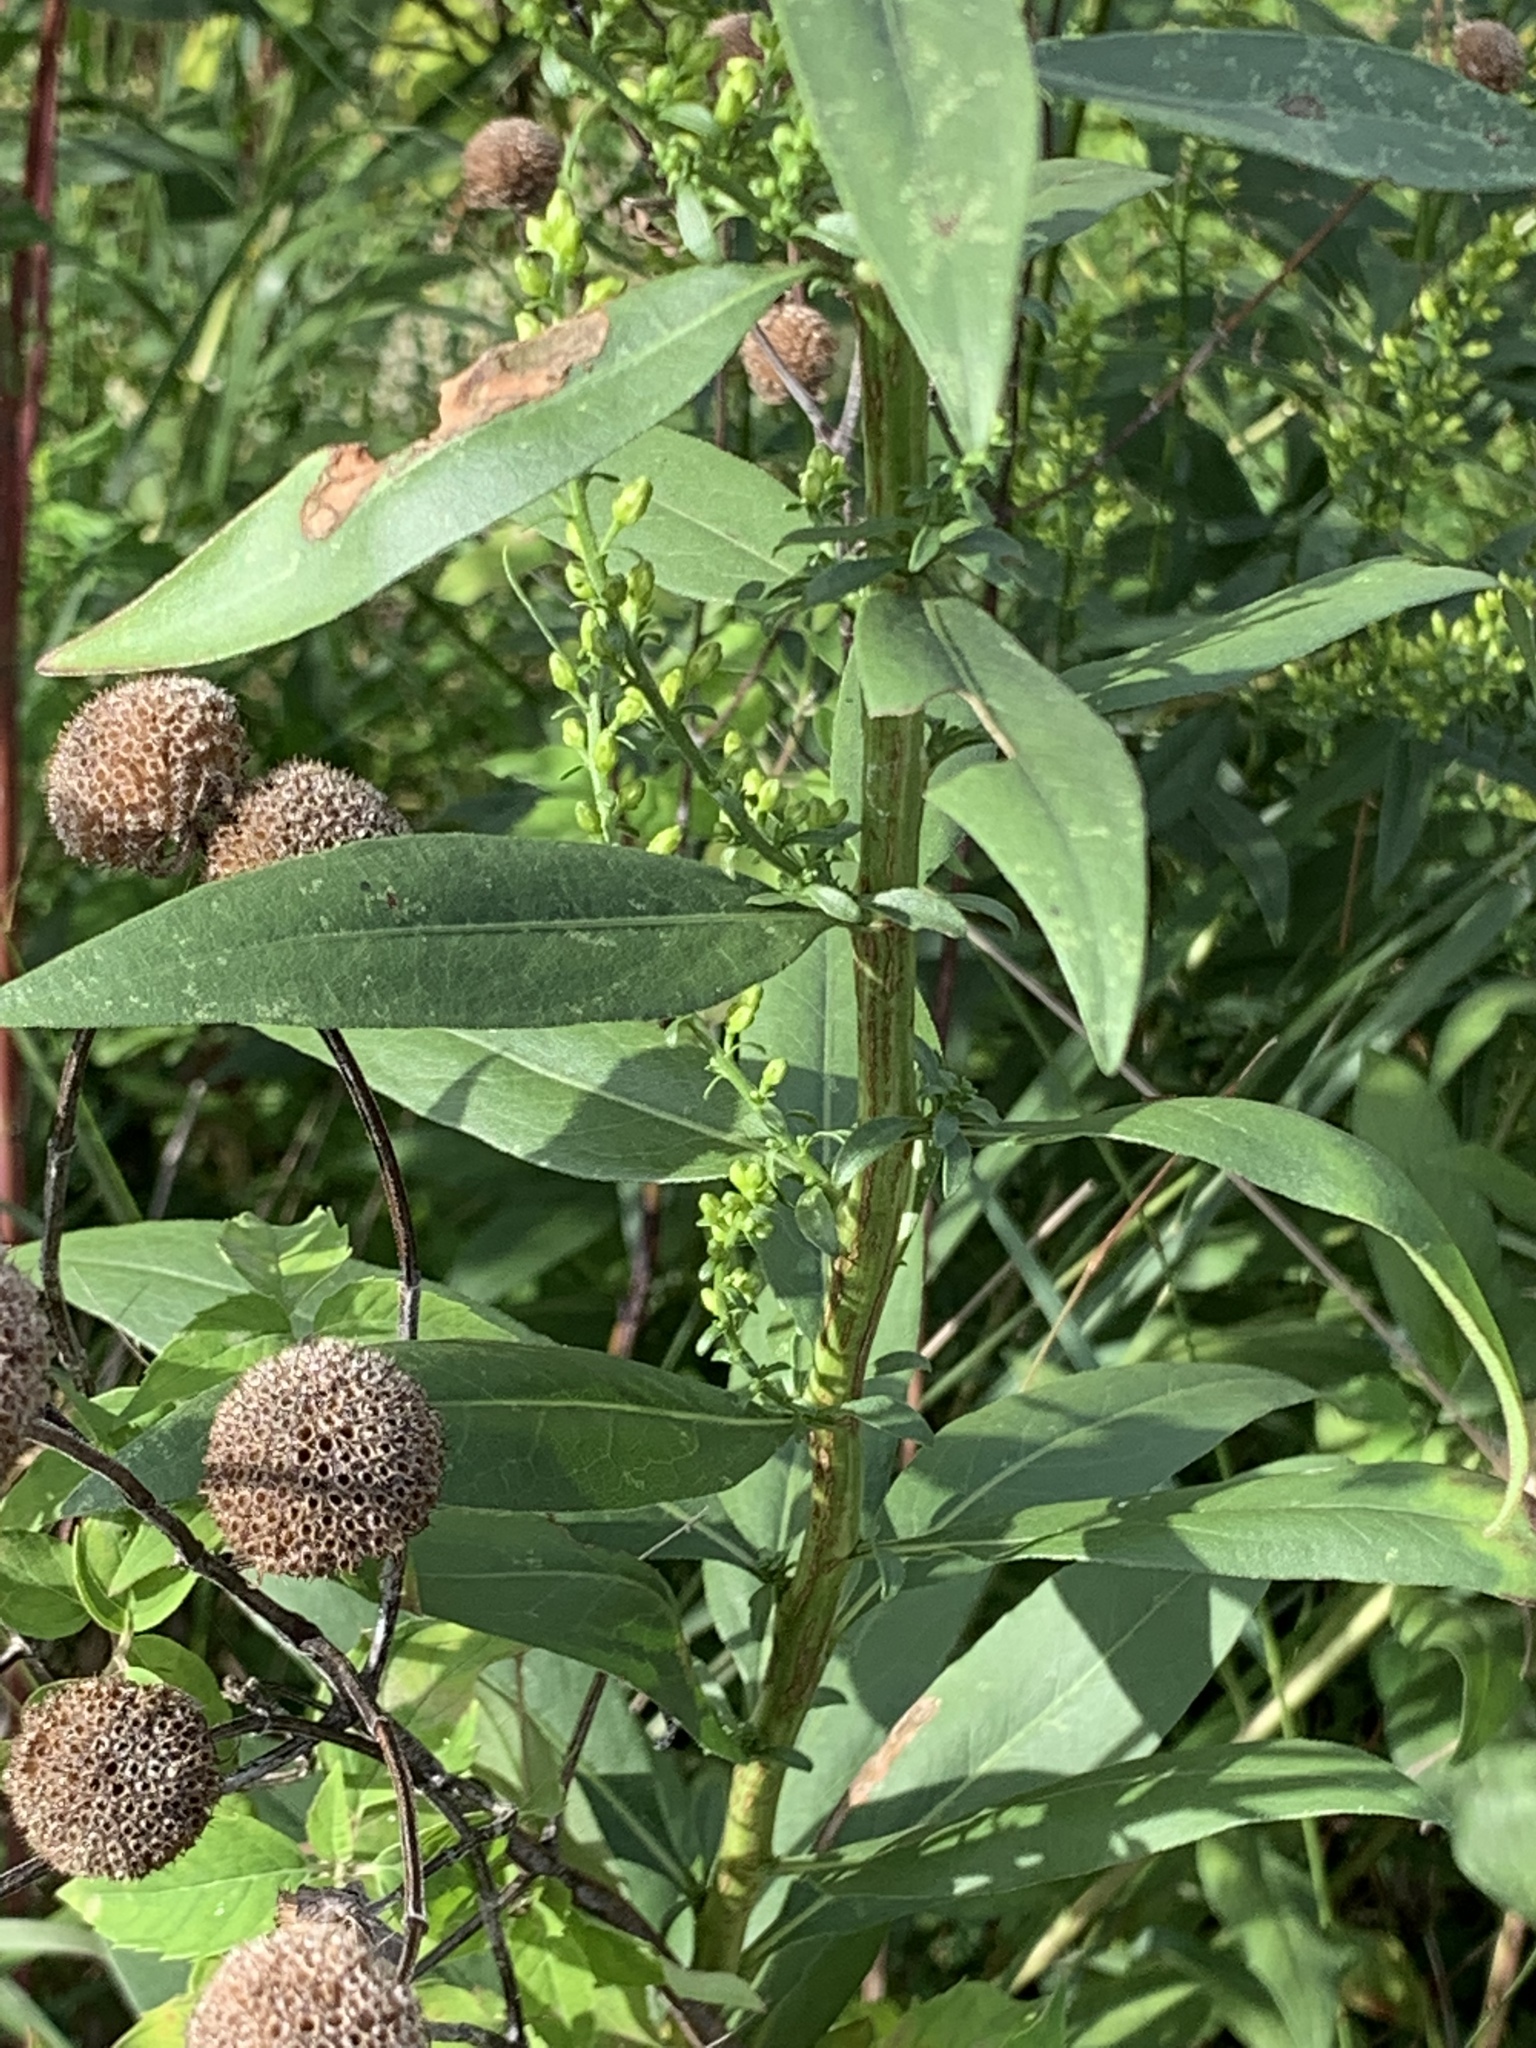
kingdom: Plantae
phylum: Tracheophyta
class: Magnoliopsida
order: Asterales
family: Asteraceae
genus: Solidago
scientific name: Solidago speciosa
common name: Showy goldenrod
